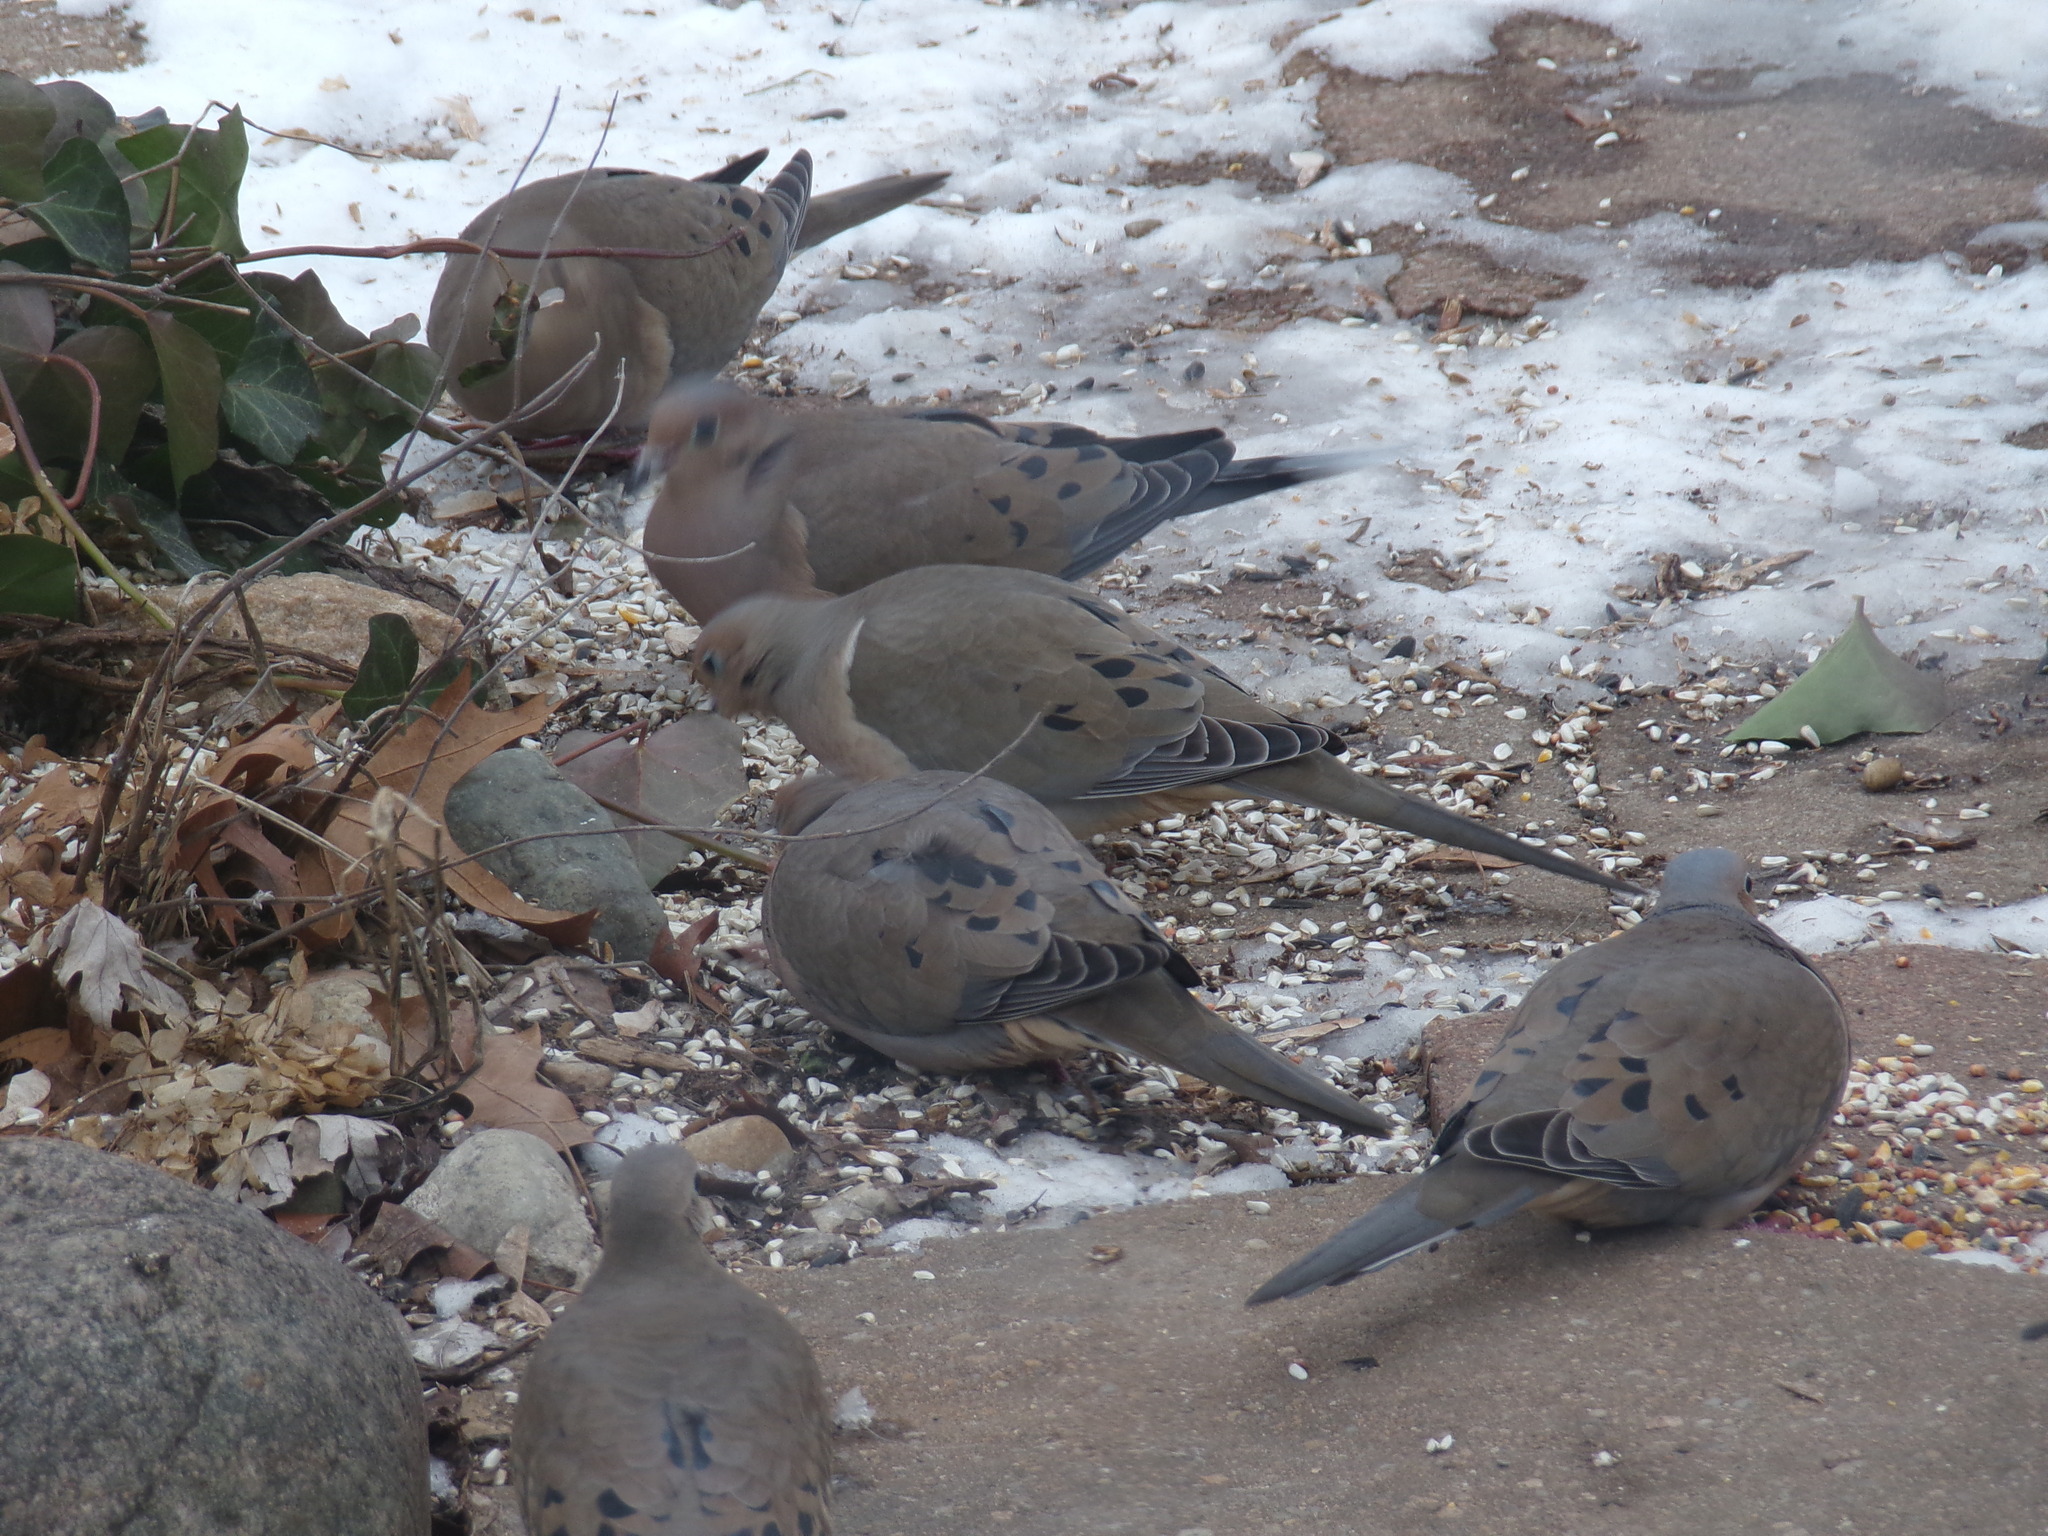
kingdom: Animalia
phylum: Chordata
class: Aves
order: Columbiformes
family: Columbidae
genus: Zenaida
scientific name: Zenaida macroura
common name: Mourning dove
